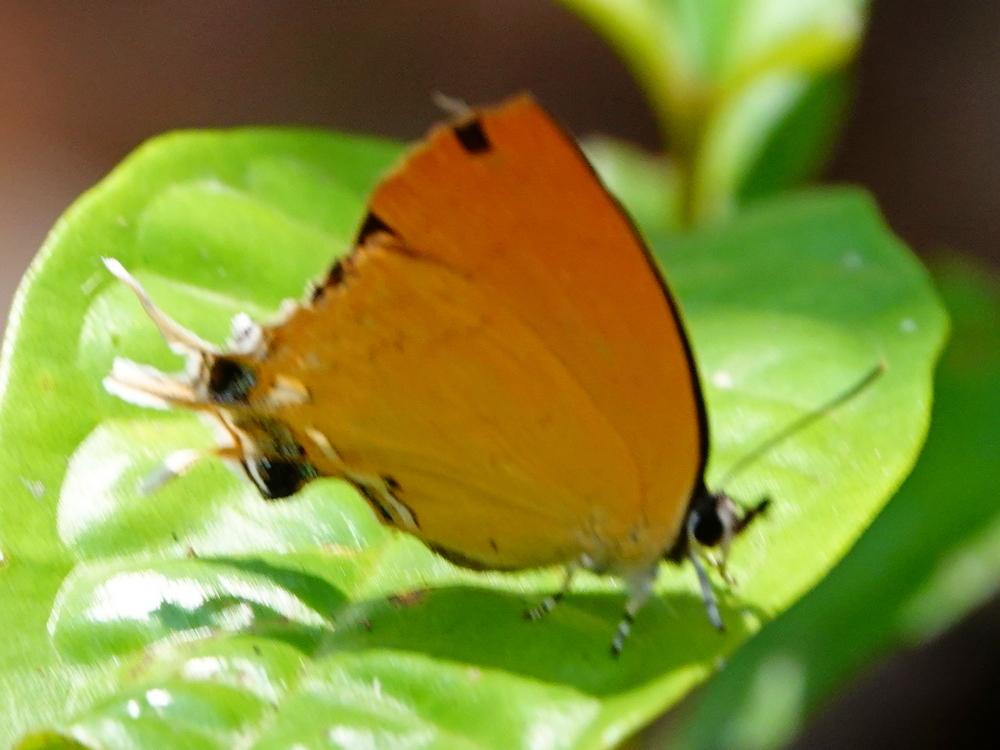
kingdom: Animalia
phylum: Arthropoda
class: Insecta
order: Lepidoptera
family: Lycaenidae
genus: Zeltus
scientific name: Zeltus amasa
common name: Fluffy tit
